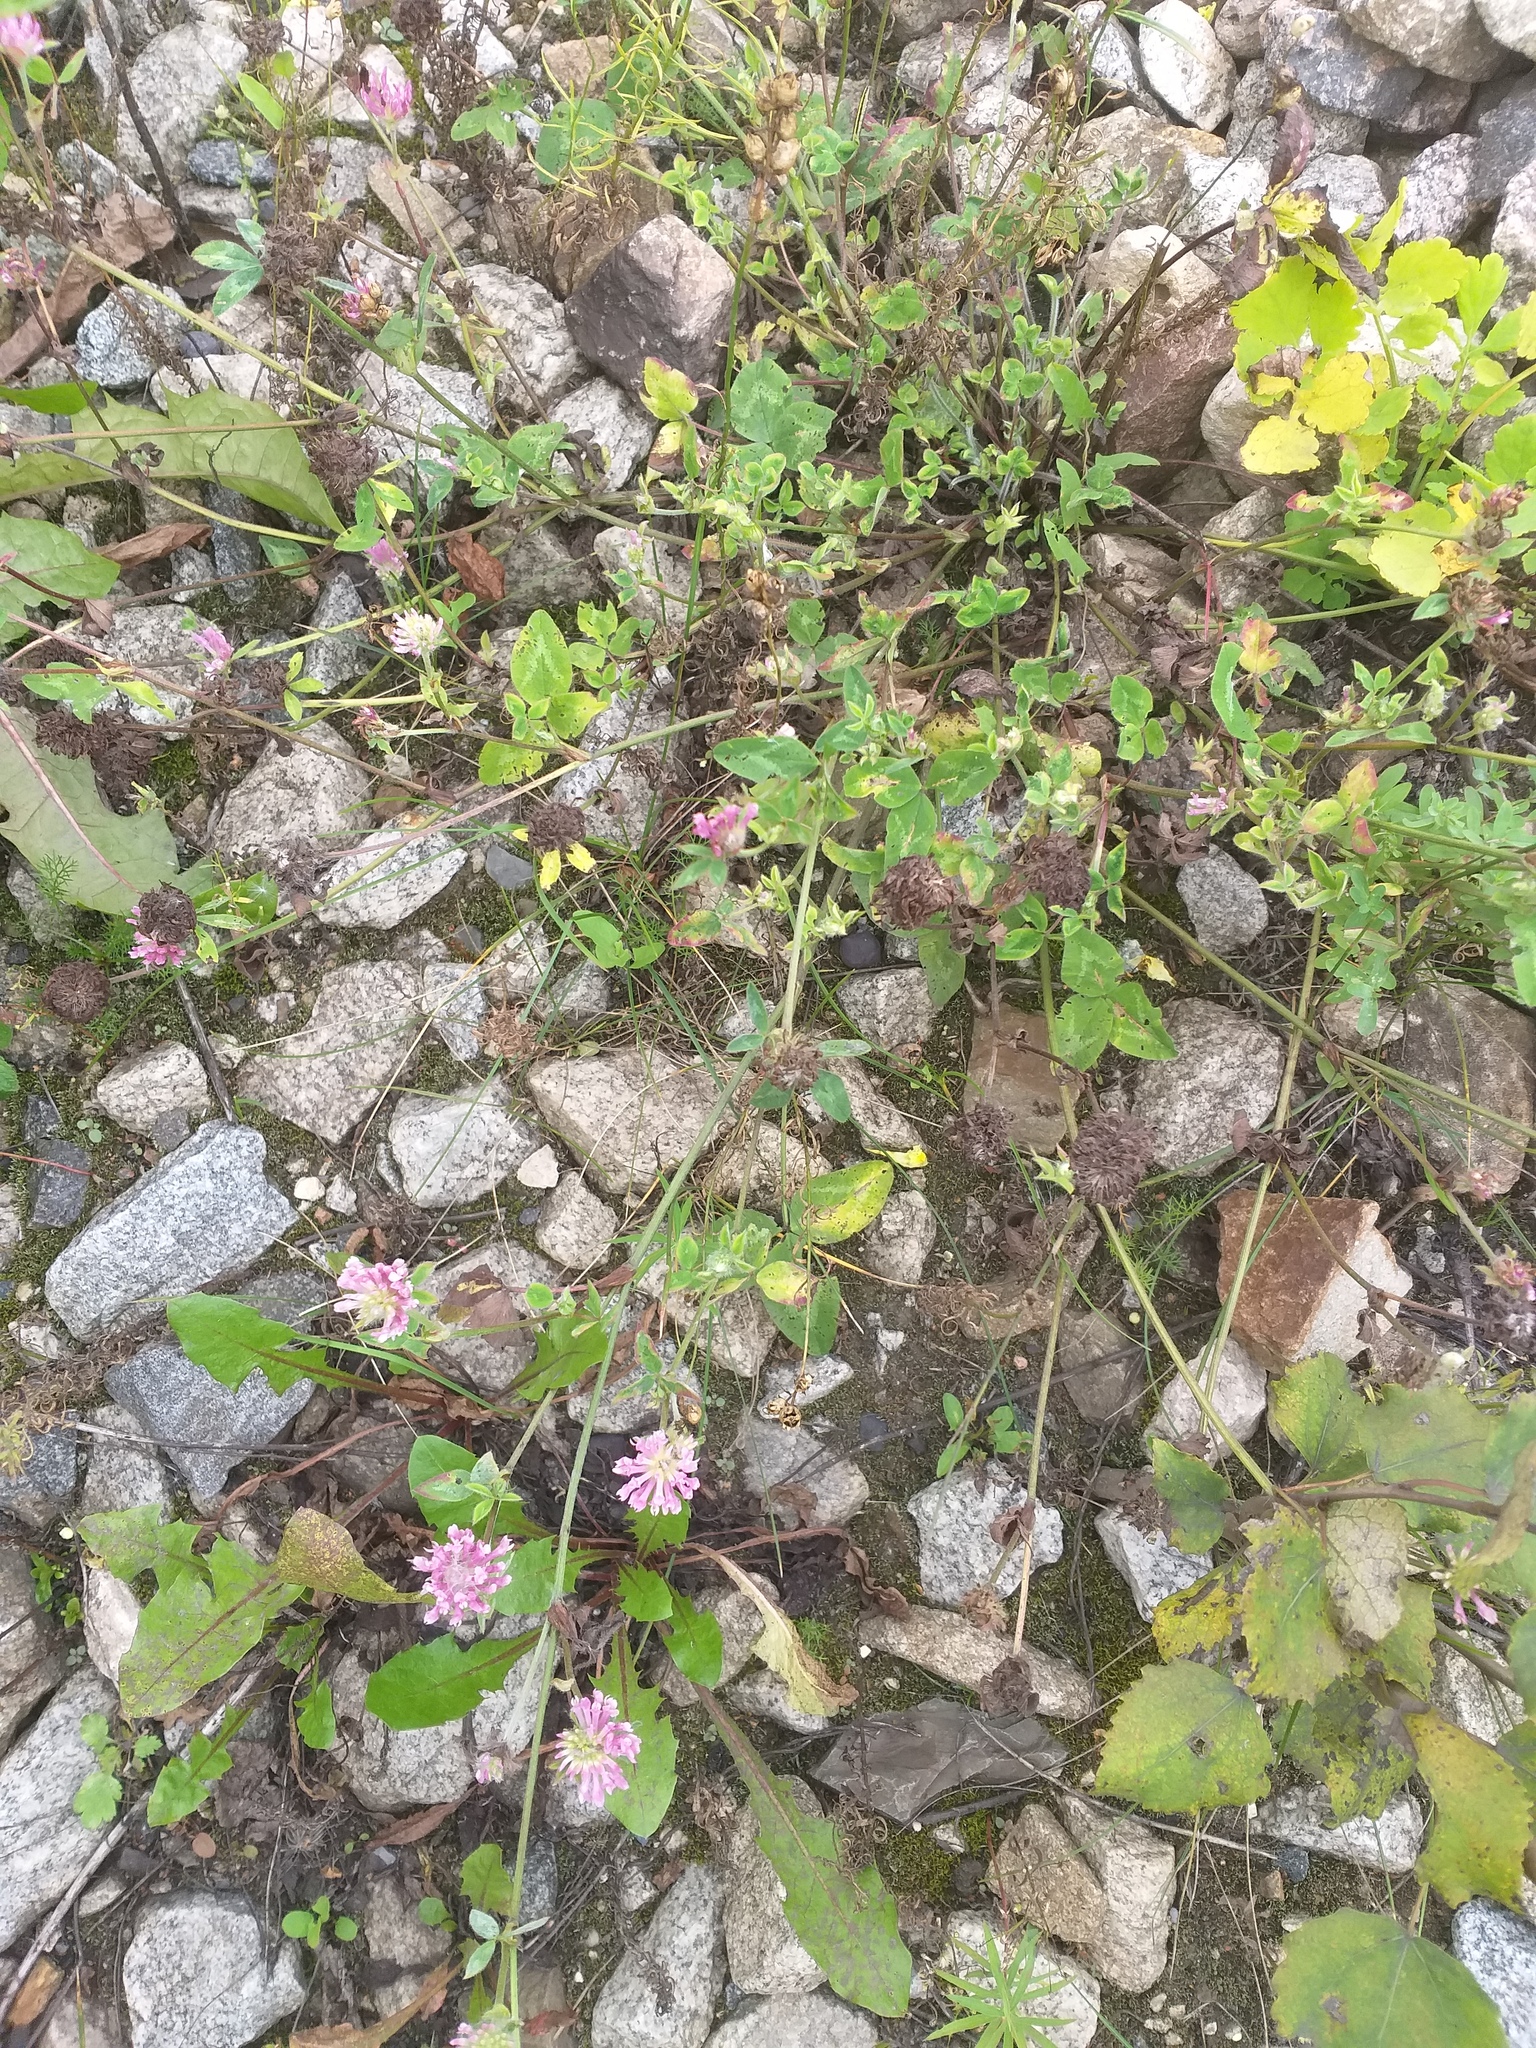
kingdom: Plantae
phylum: Tracheophyta
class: Magnoliopsida
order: Fabales
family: Fabaceae
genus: Trifolium
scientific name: Trifolium pratense
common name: Red clover
